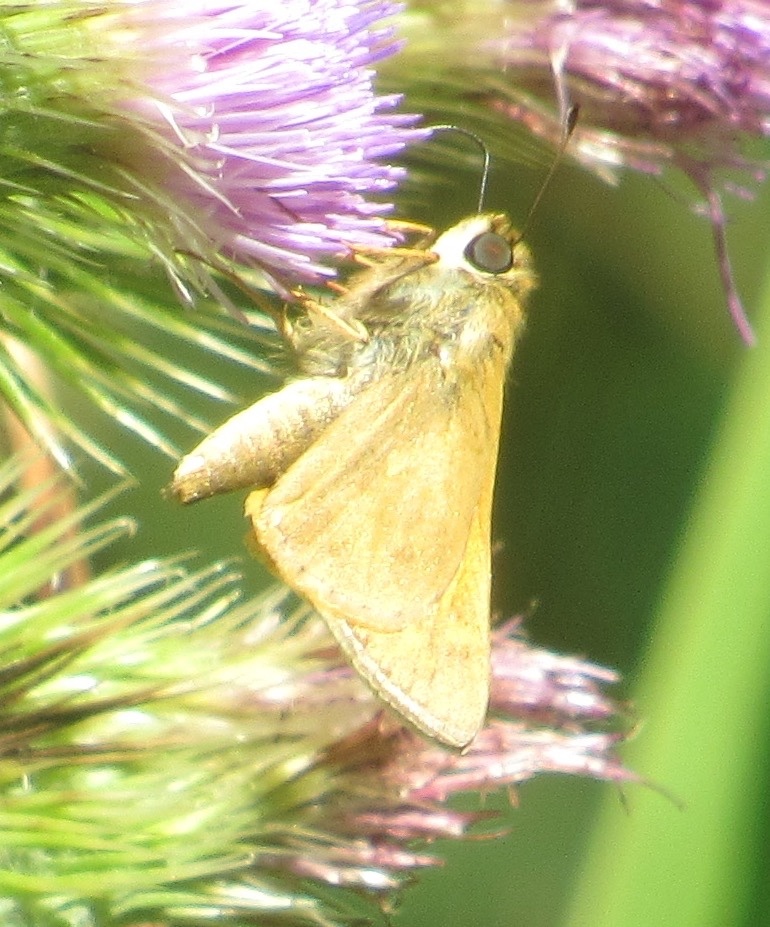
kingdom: Animalia
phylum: Arthropoda
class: Insecta
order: Lepidoptera
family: Hesperiidae
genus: Atalopedes
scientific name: Atalopedes
